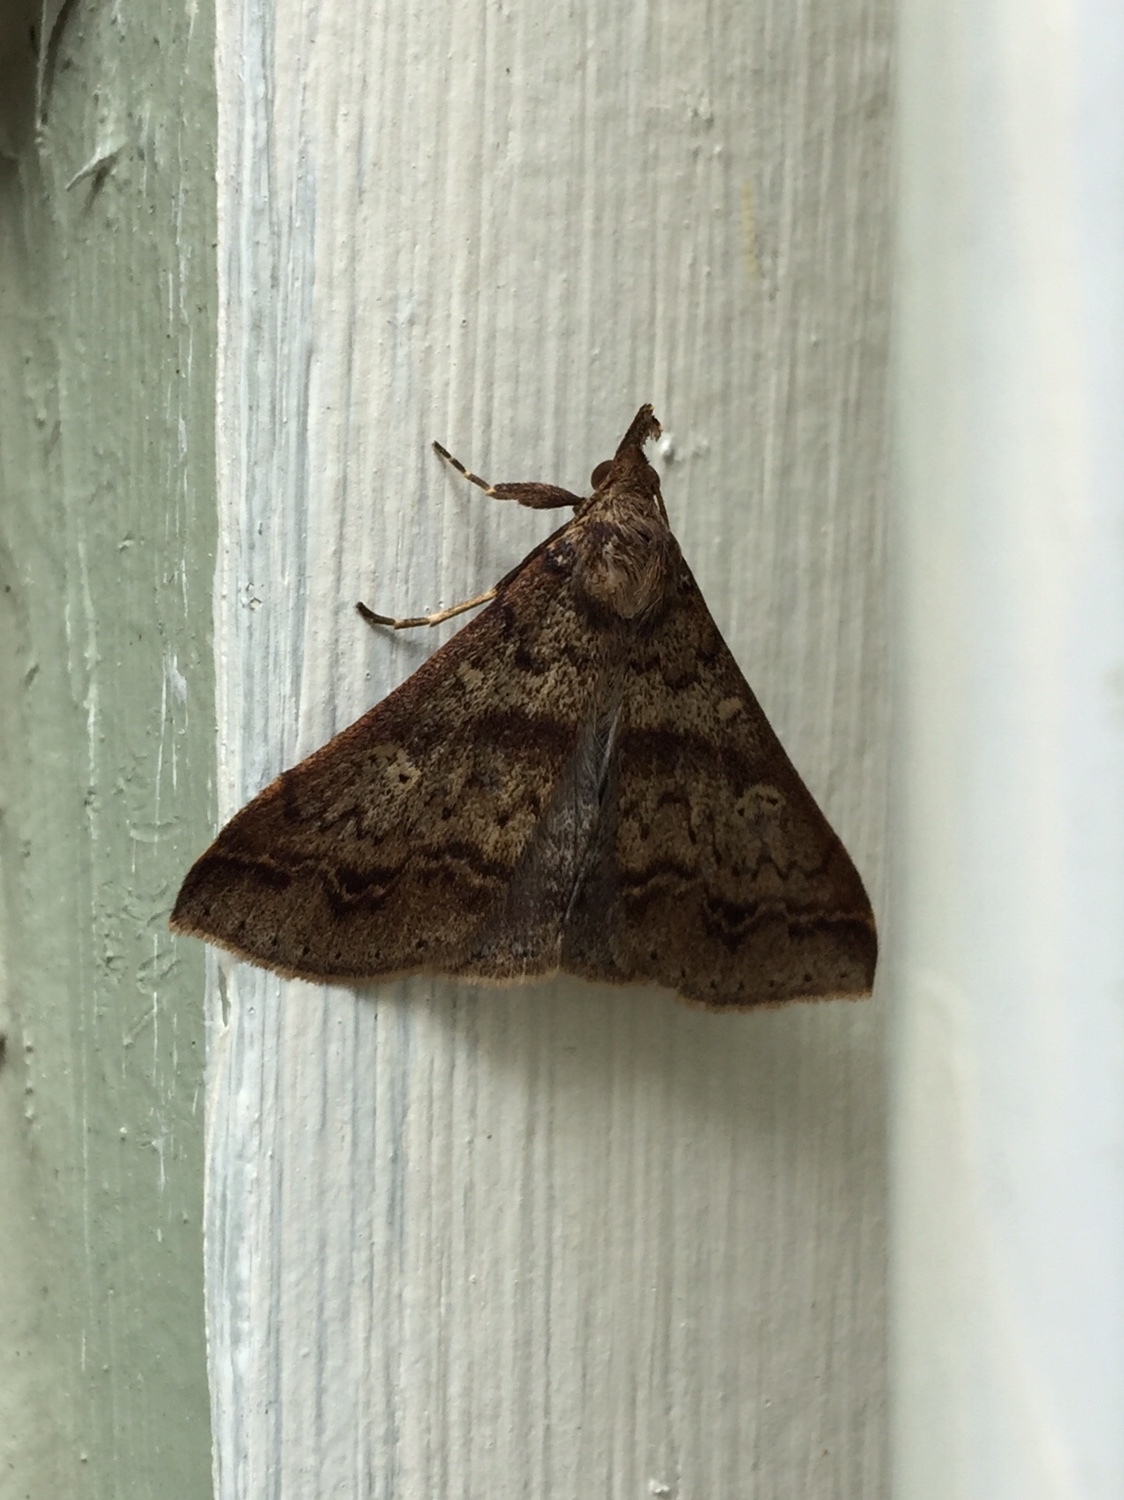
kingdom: Animalia
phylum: Arthropoda
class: Insecta
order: Lepidoptera
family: Erebidae
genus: Renia
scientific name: Renia discoloralis
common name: Discolored renia moth
